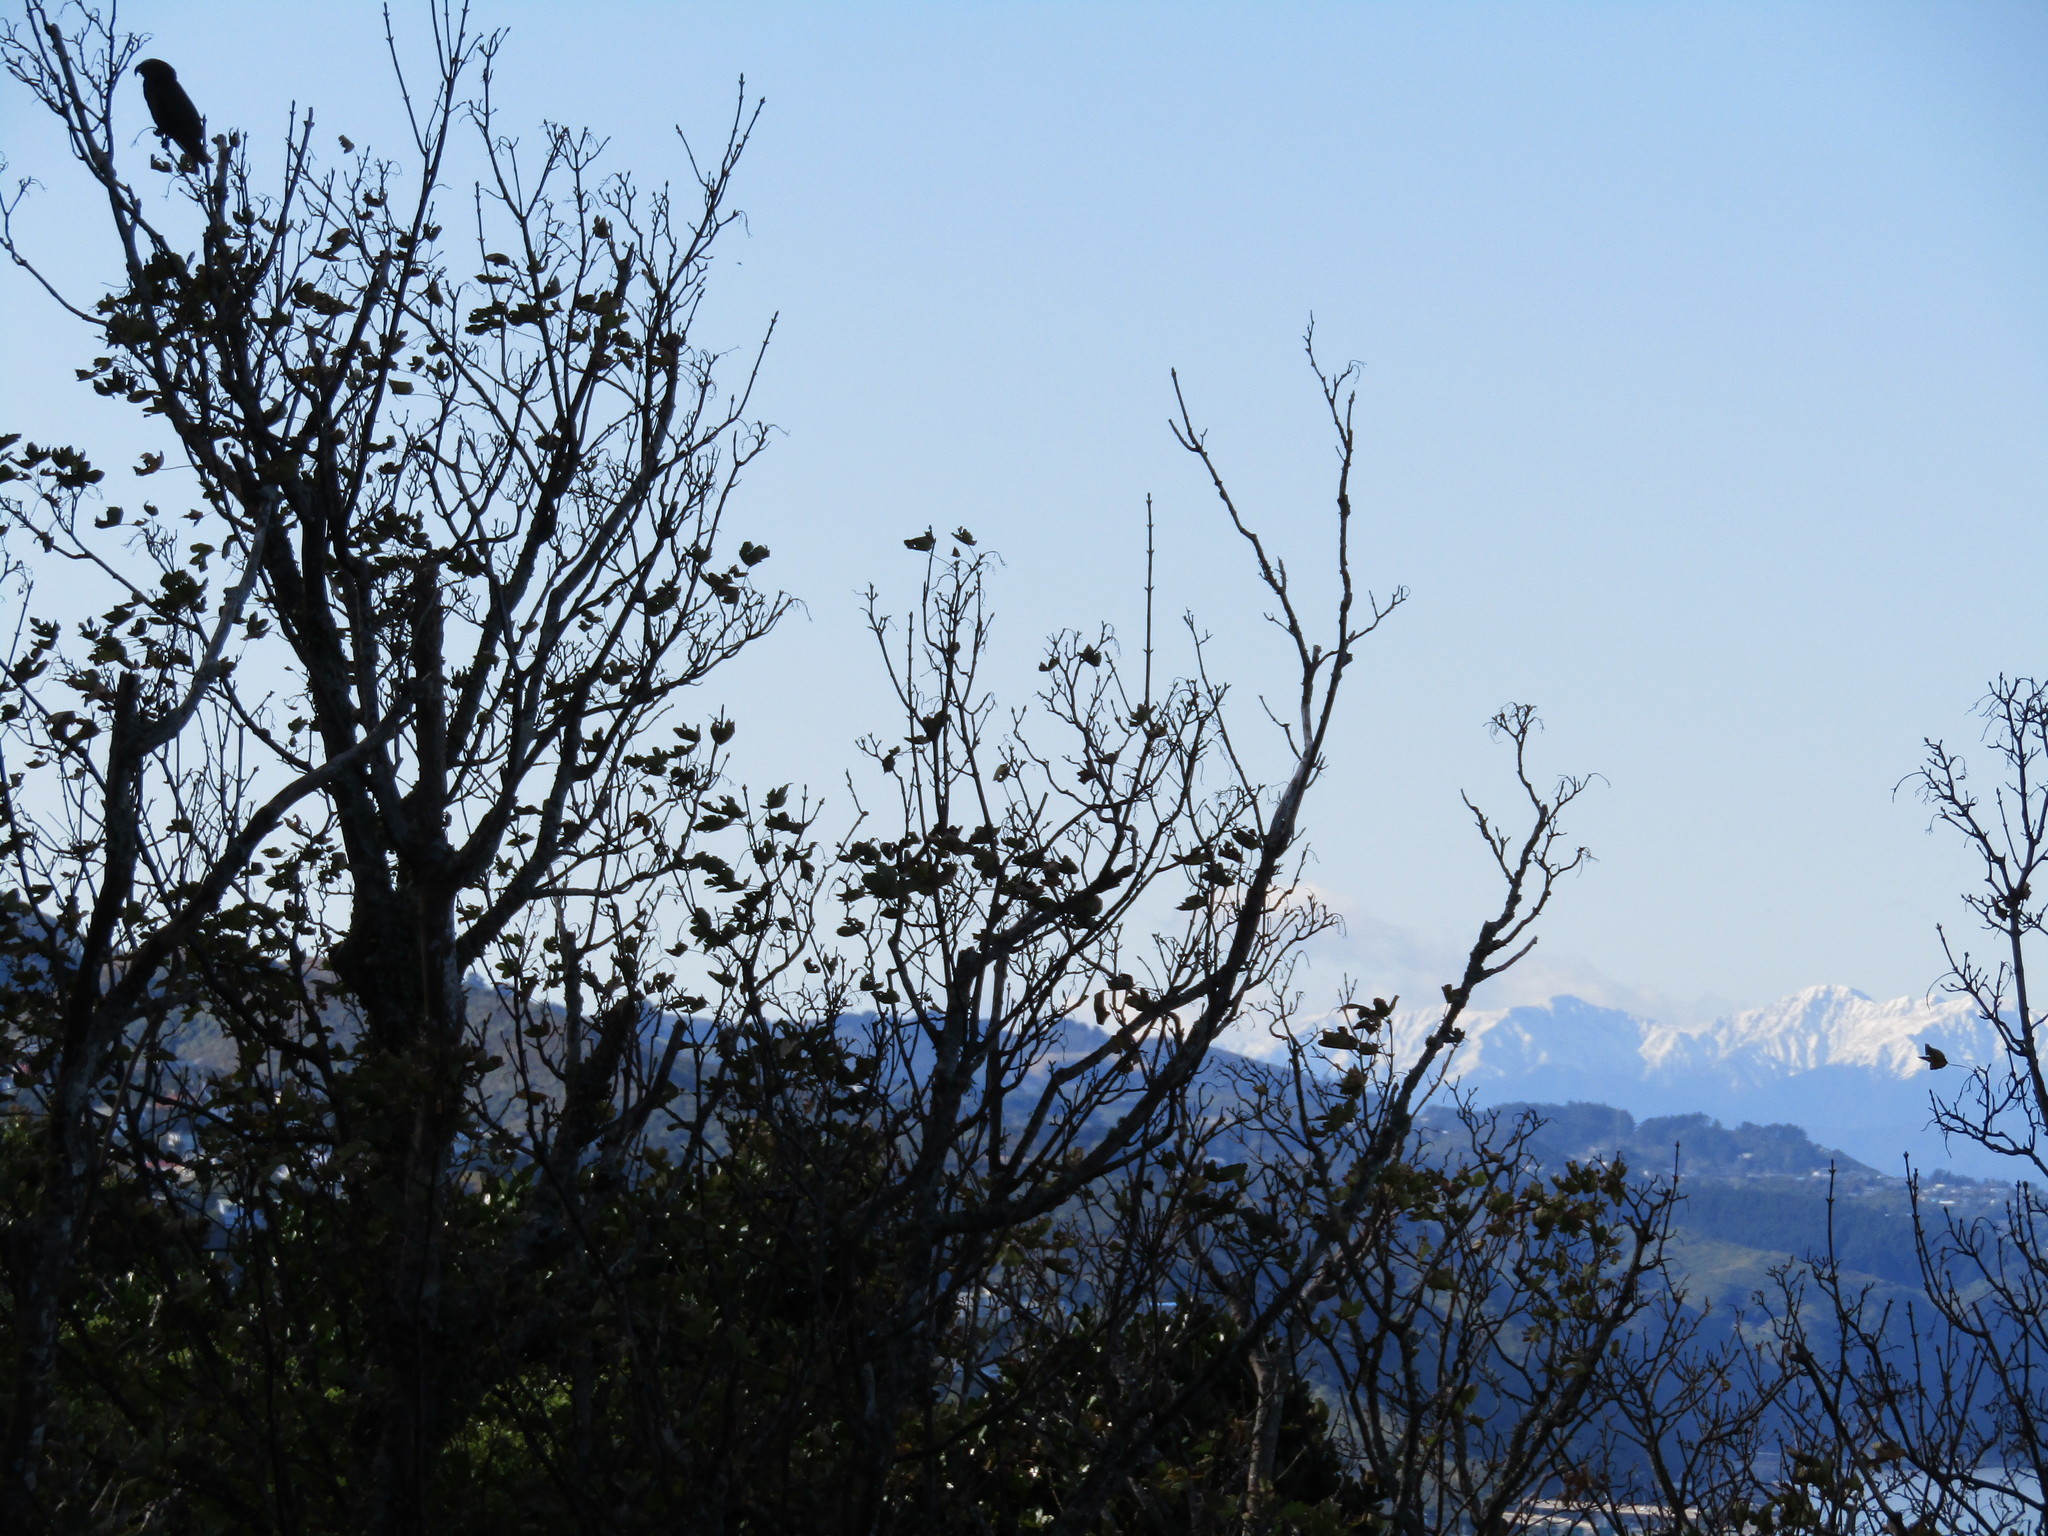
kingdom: Animalia
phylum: Chordata
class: Aves
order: Psittaciformes
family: Psittacidae
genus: Nestor
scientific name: Nestor meridionalis
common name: New zealand kaka
